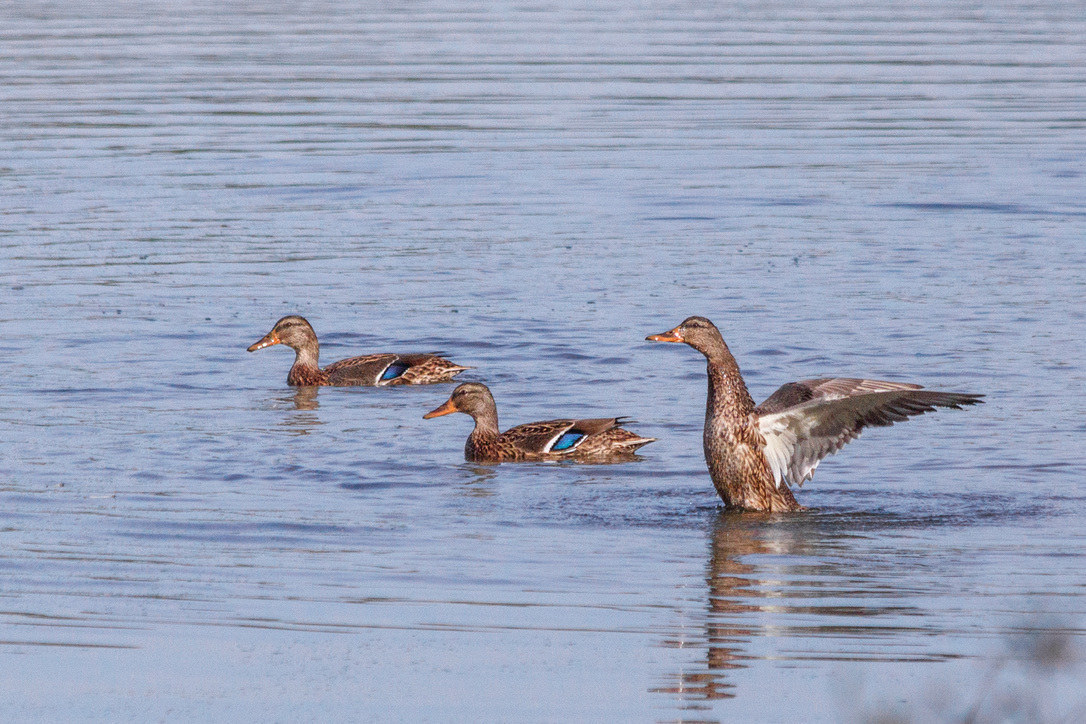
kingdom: Animalia
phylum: Chordata
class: Aves
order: Anseriformes
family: Anatidae
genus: Anas
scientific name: Anas platyrhynchos
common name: Mallard
